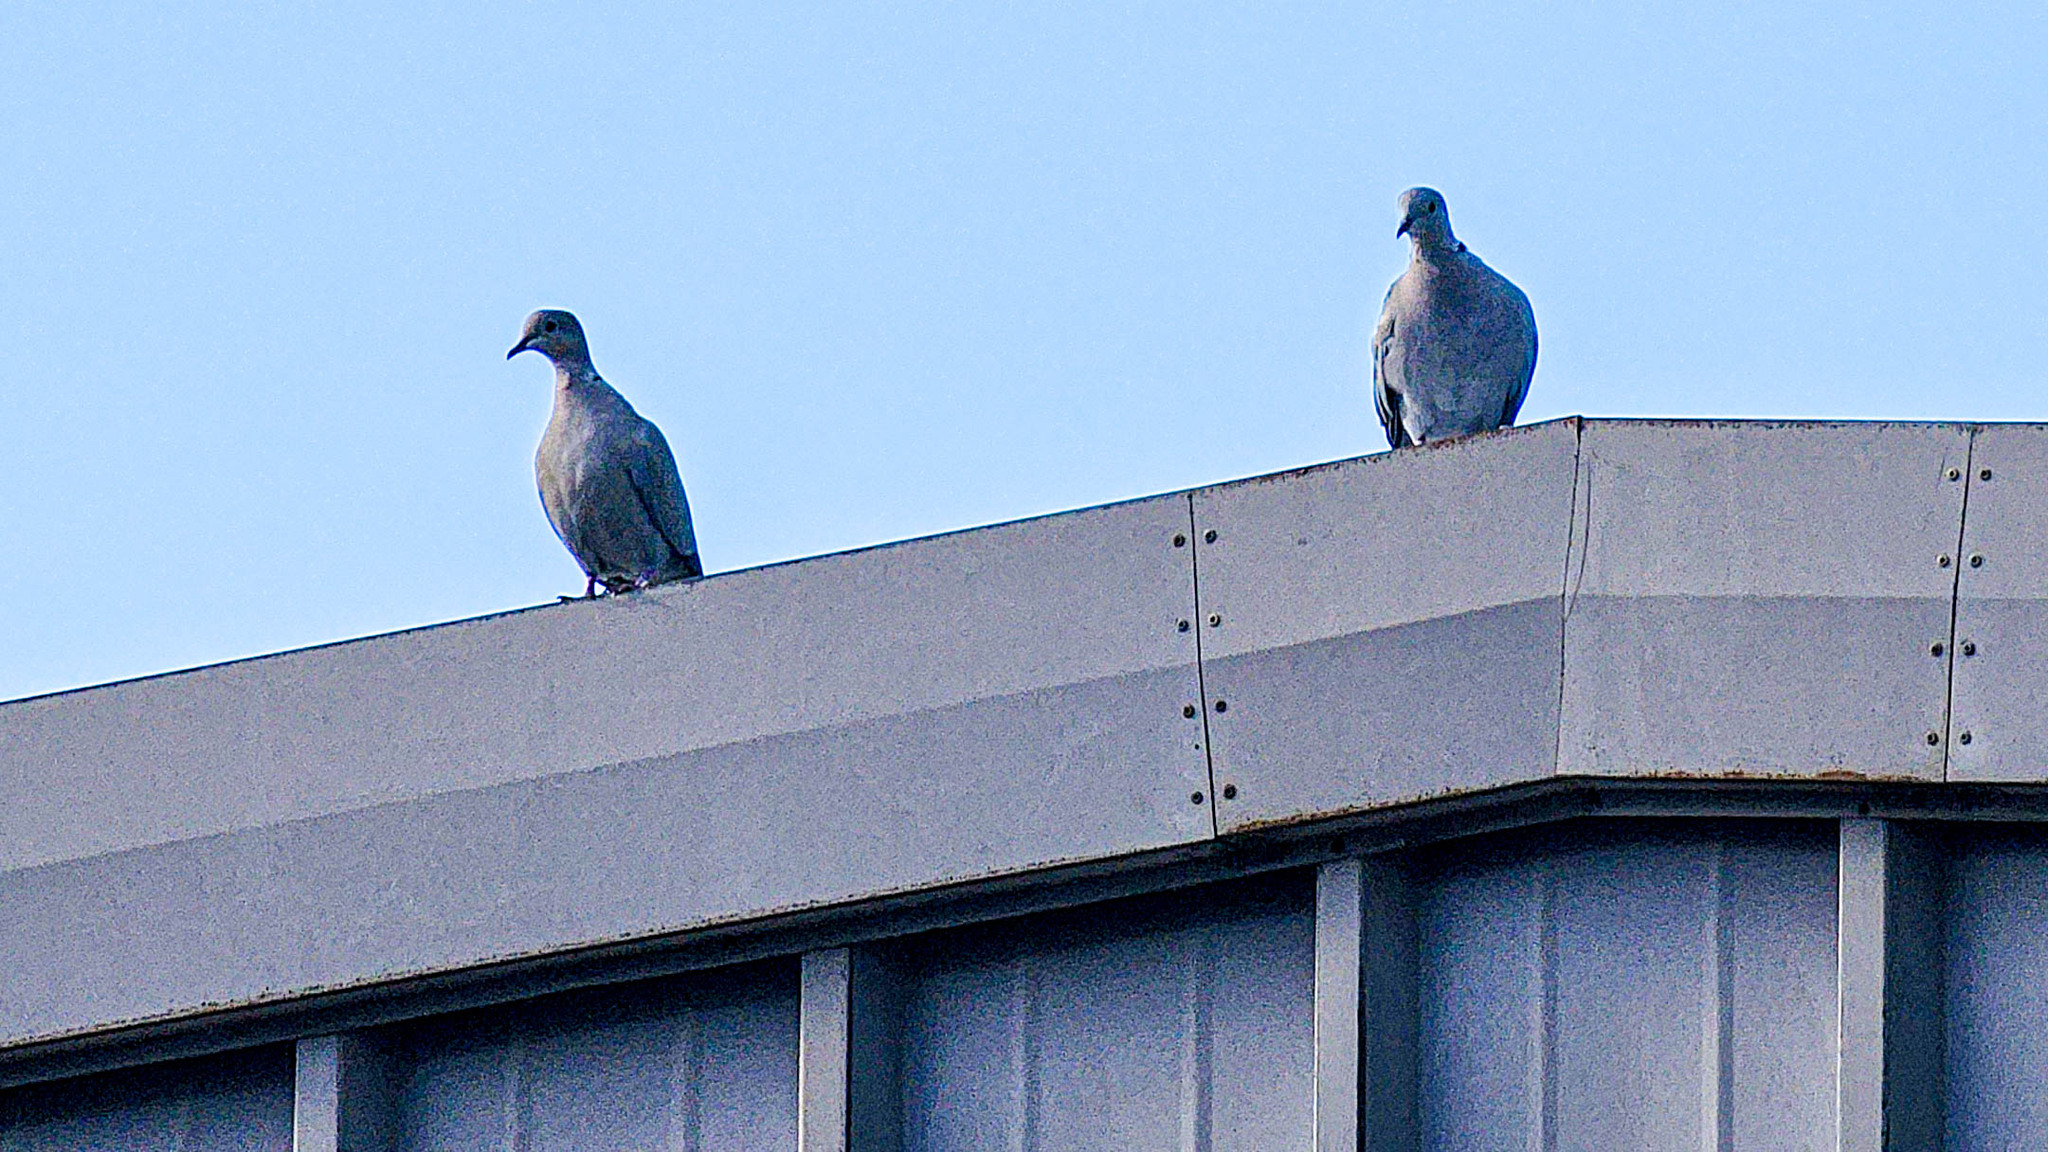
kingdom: Animalia
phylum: Chordata
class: Aves
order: Columbiformes
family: Columbidae
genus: Streptopelia
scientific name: Streptopelia decaocto
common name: Eurasian collared dove
